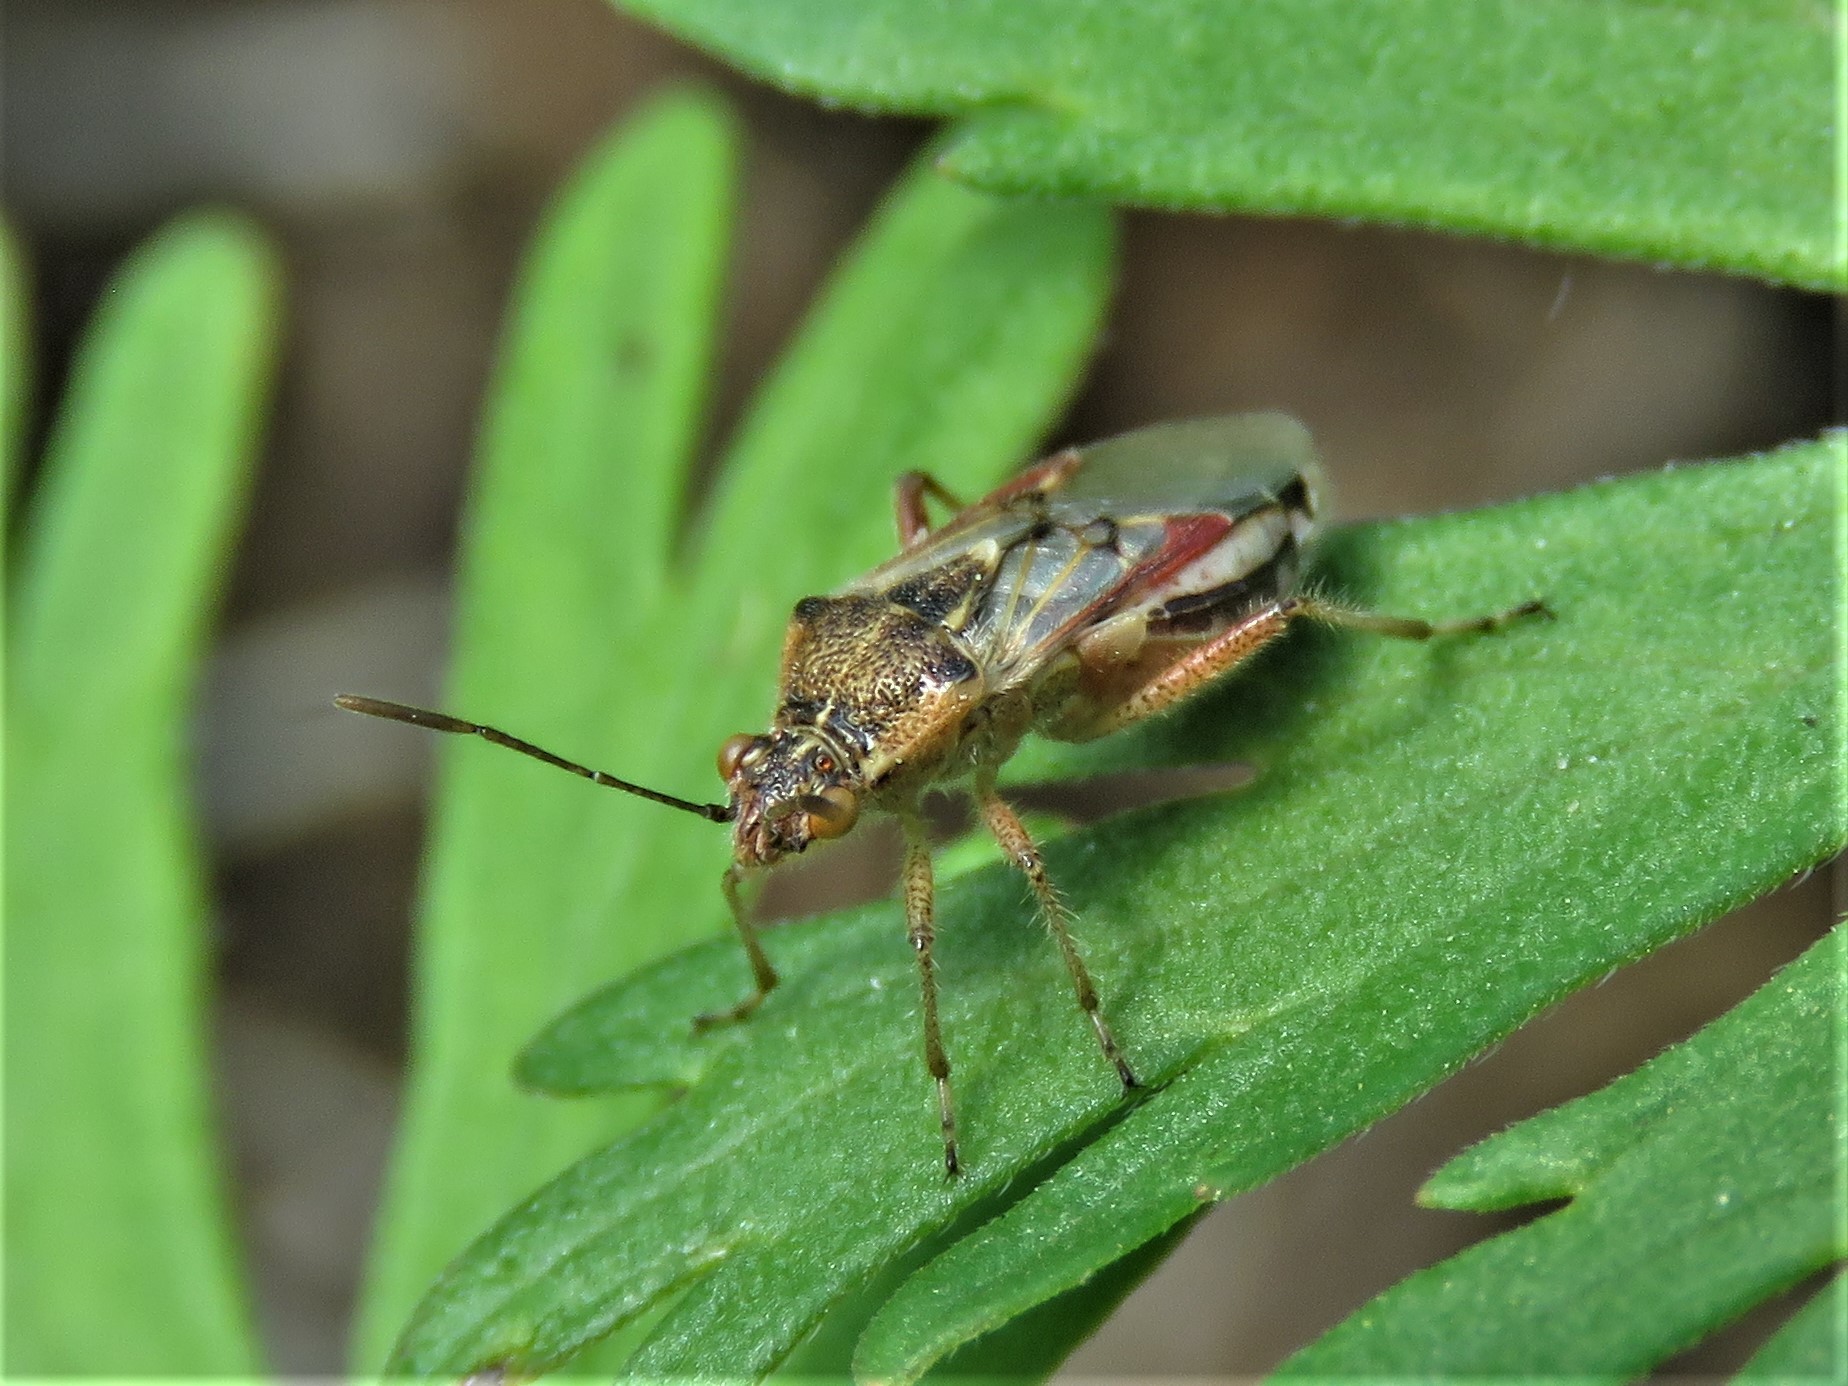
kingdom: Animalia
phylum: Arthropoda
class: Insecta
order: Hemiptera
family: Rhopalidae
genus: Liorhyssus
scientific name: Liorhyssus hyalinus
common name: Scentless plant bug
